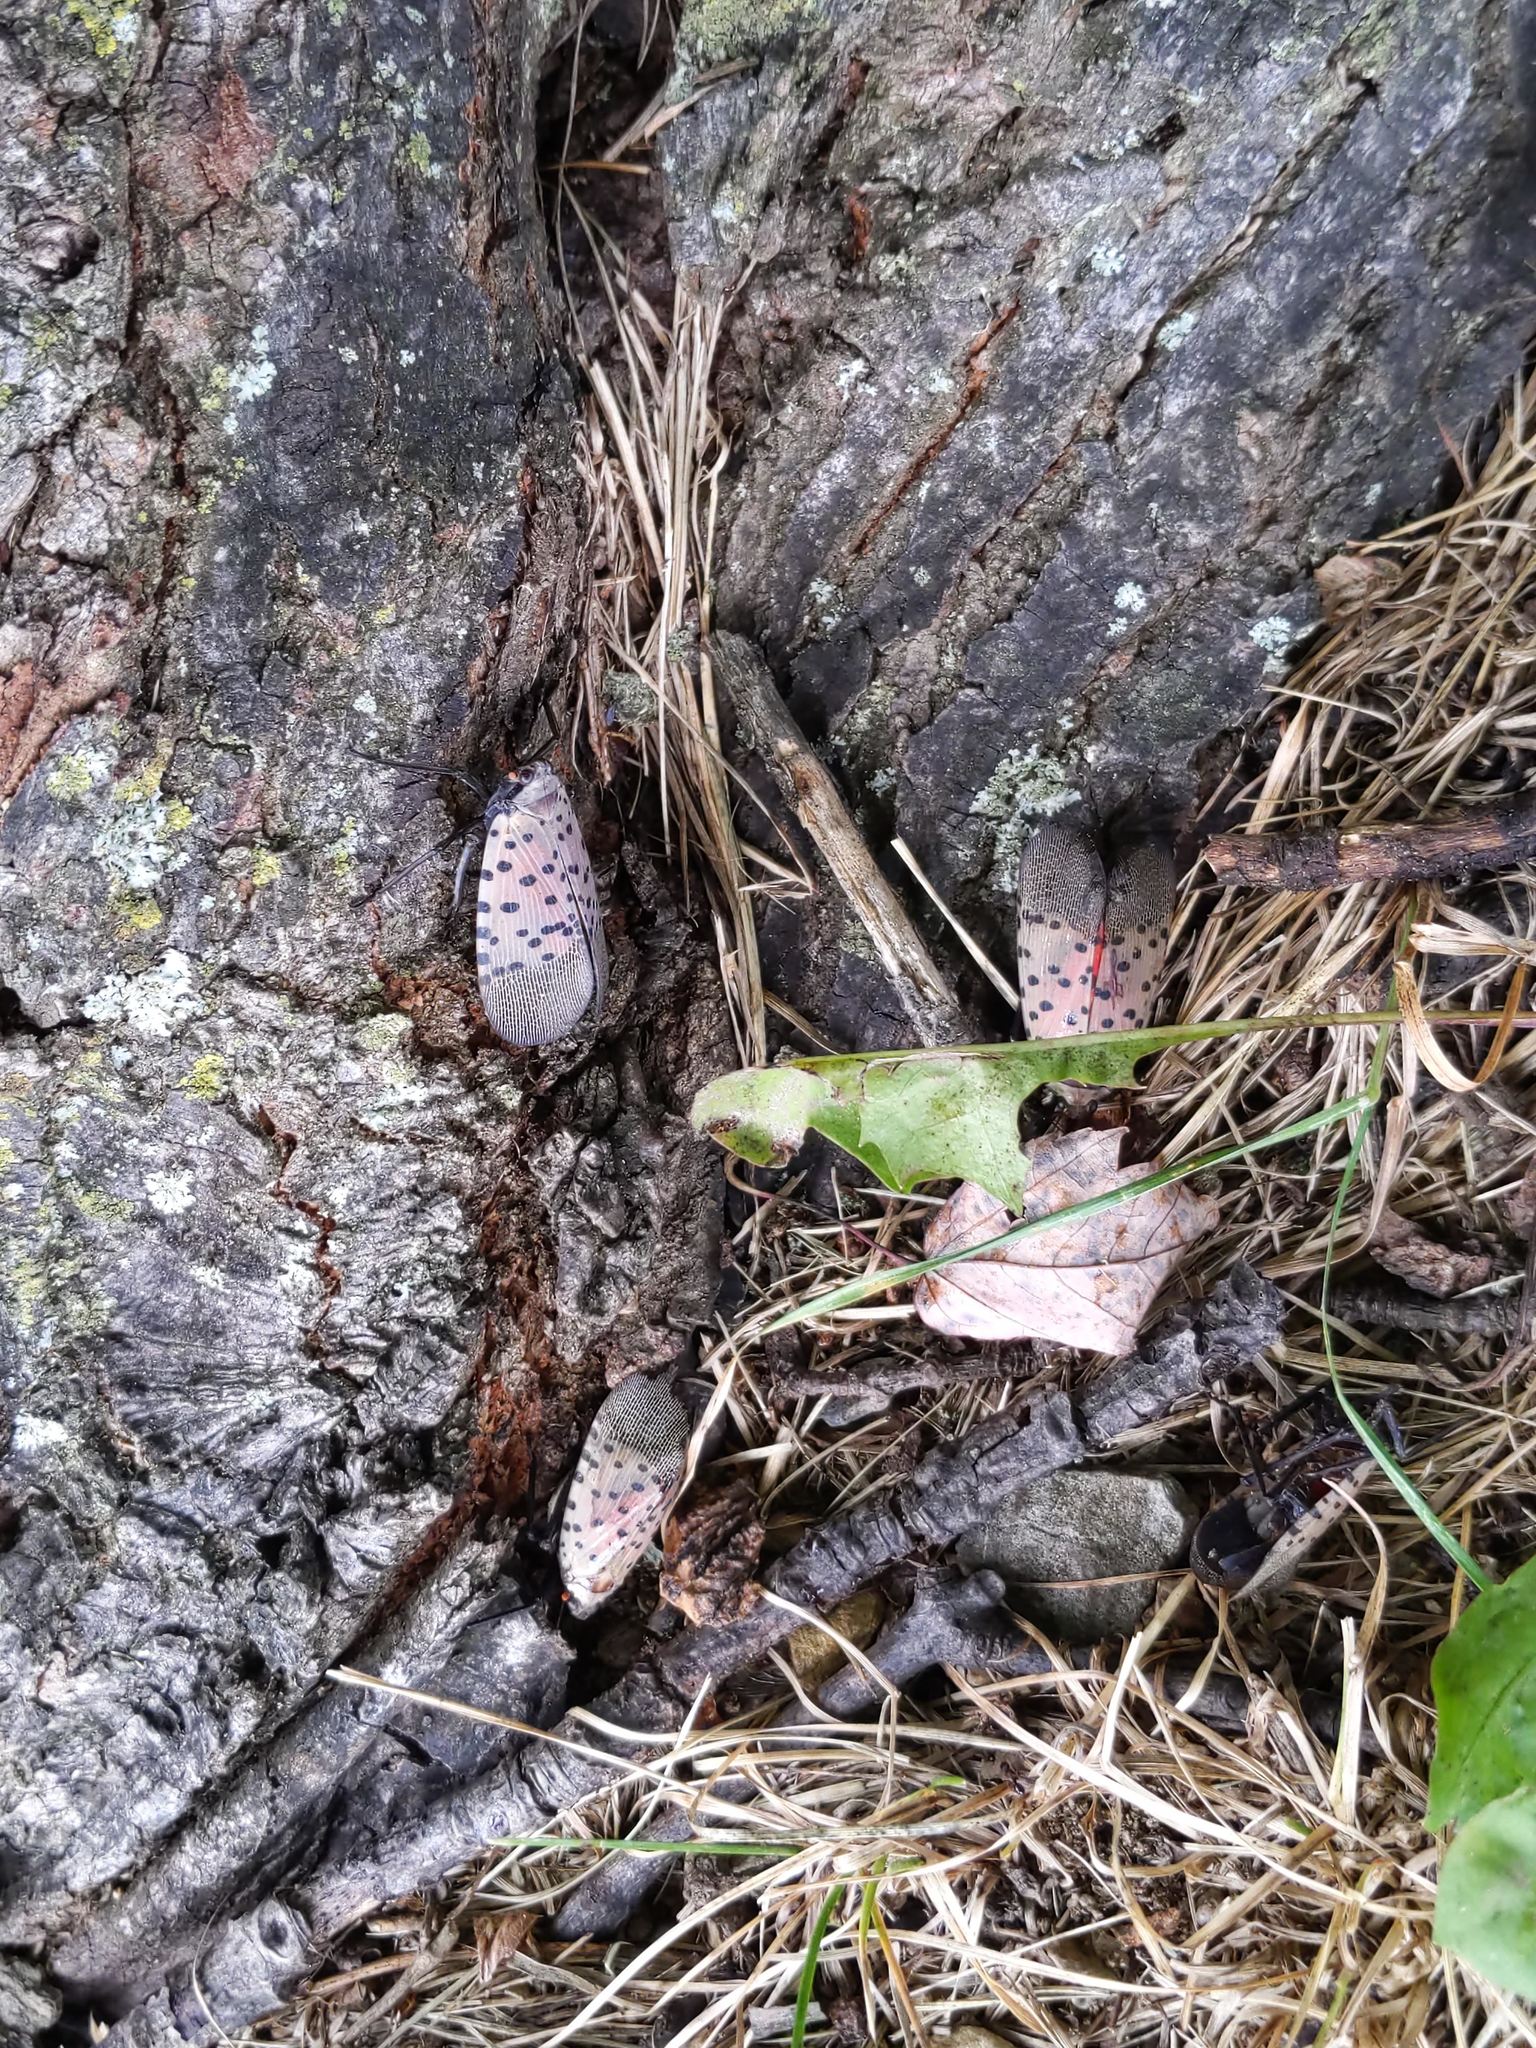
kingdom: Animalia
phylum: Arthropoda
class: Insecta
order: Hemiptera
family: Fulgoridae
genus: Lycorma
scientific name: Lycorma delicatula
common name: Spotted lanternfly
